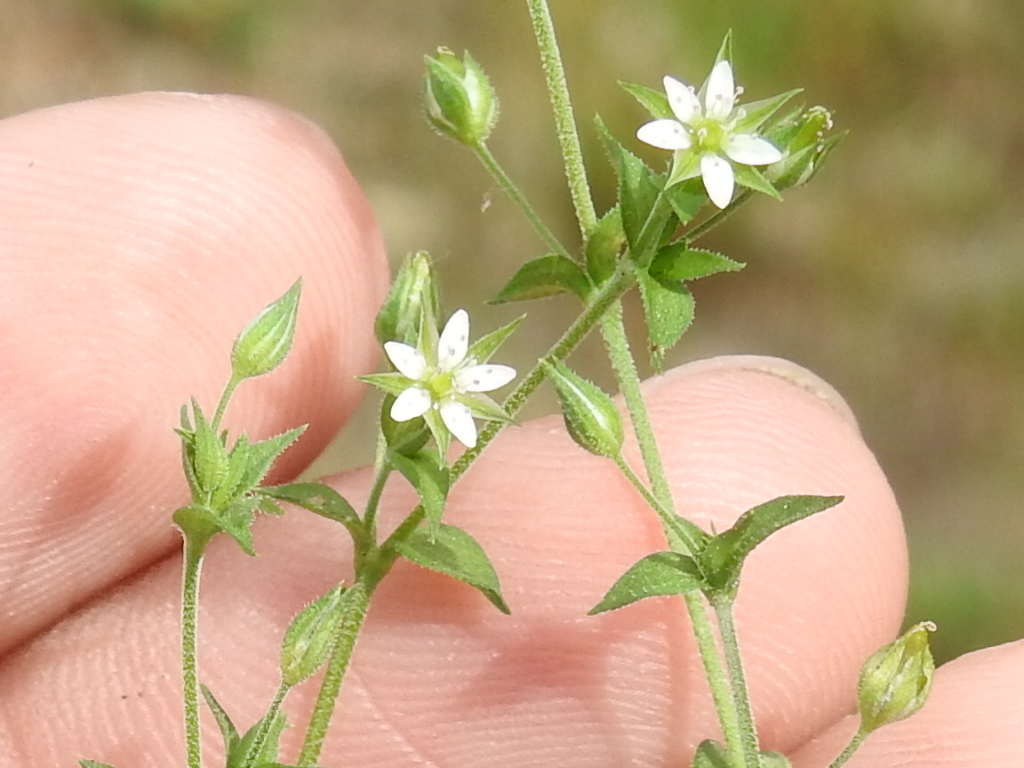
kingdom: Plantae
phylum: Tracheophyta
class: Magnoliopsida
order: Caryophyllales
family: Caryophyllaceae
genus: Arenaria
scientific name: Arenaria serpyllifolia
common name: Thyme-leaved sandwort
